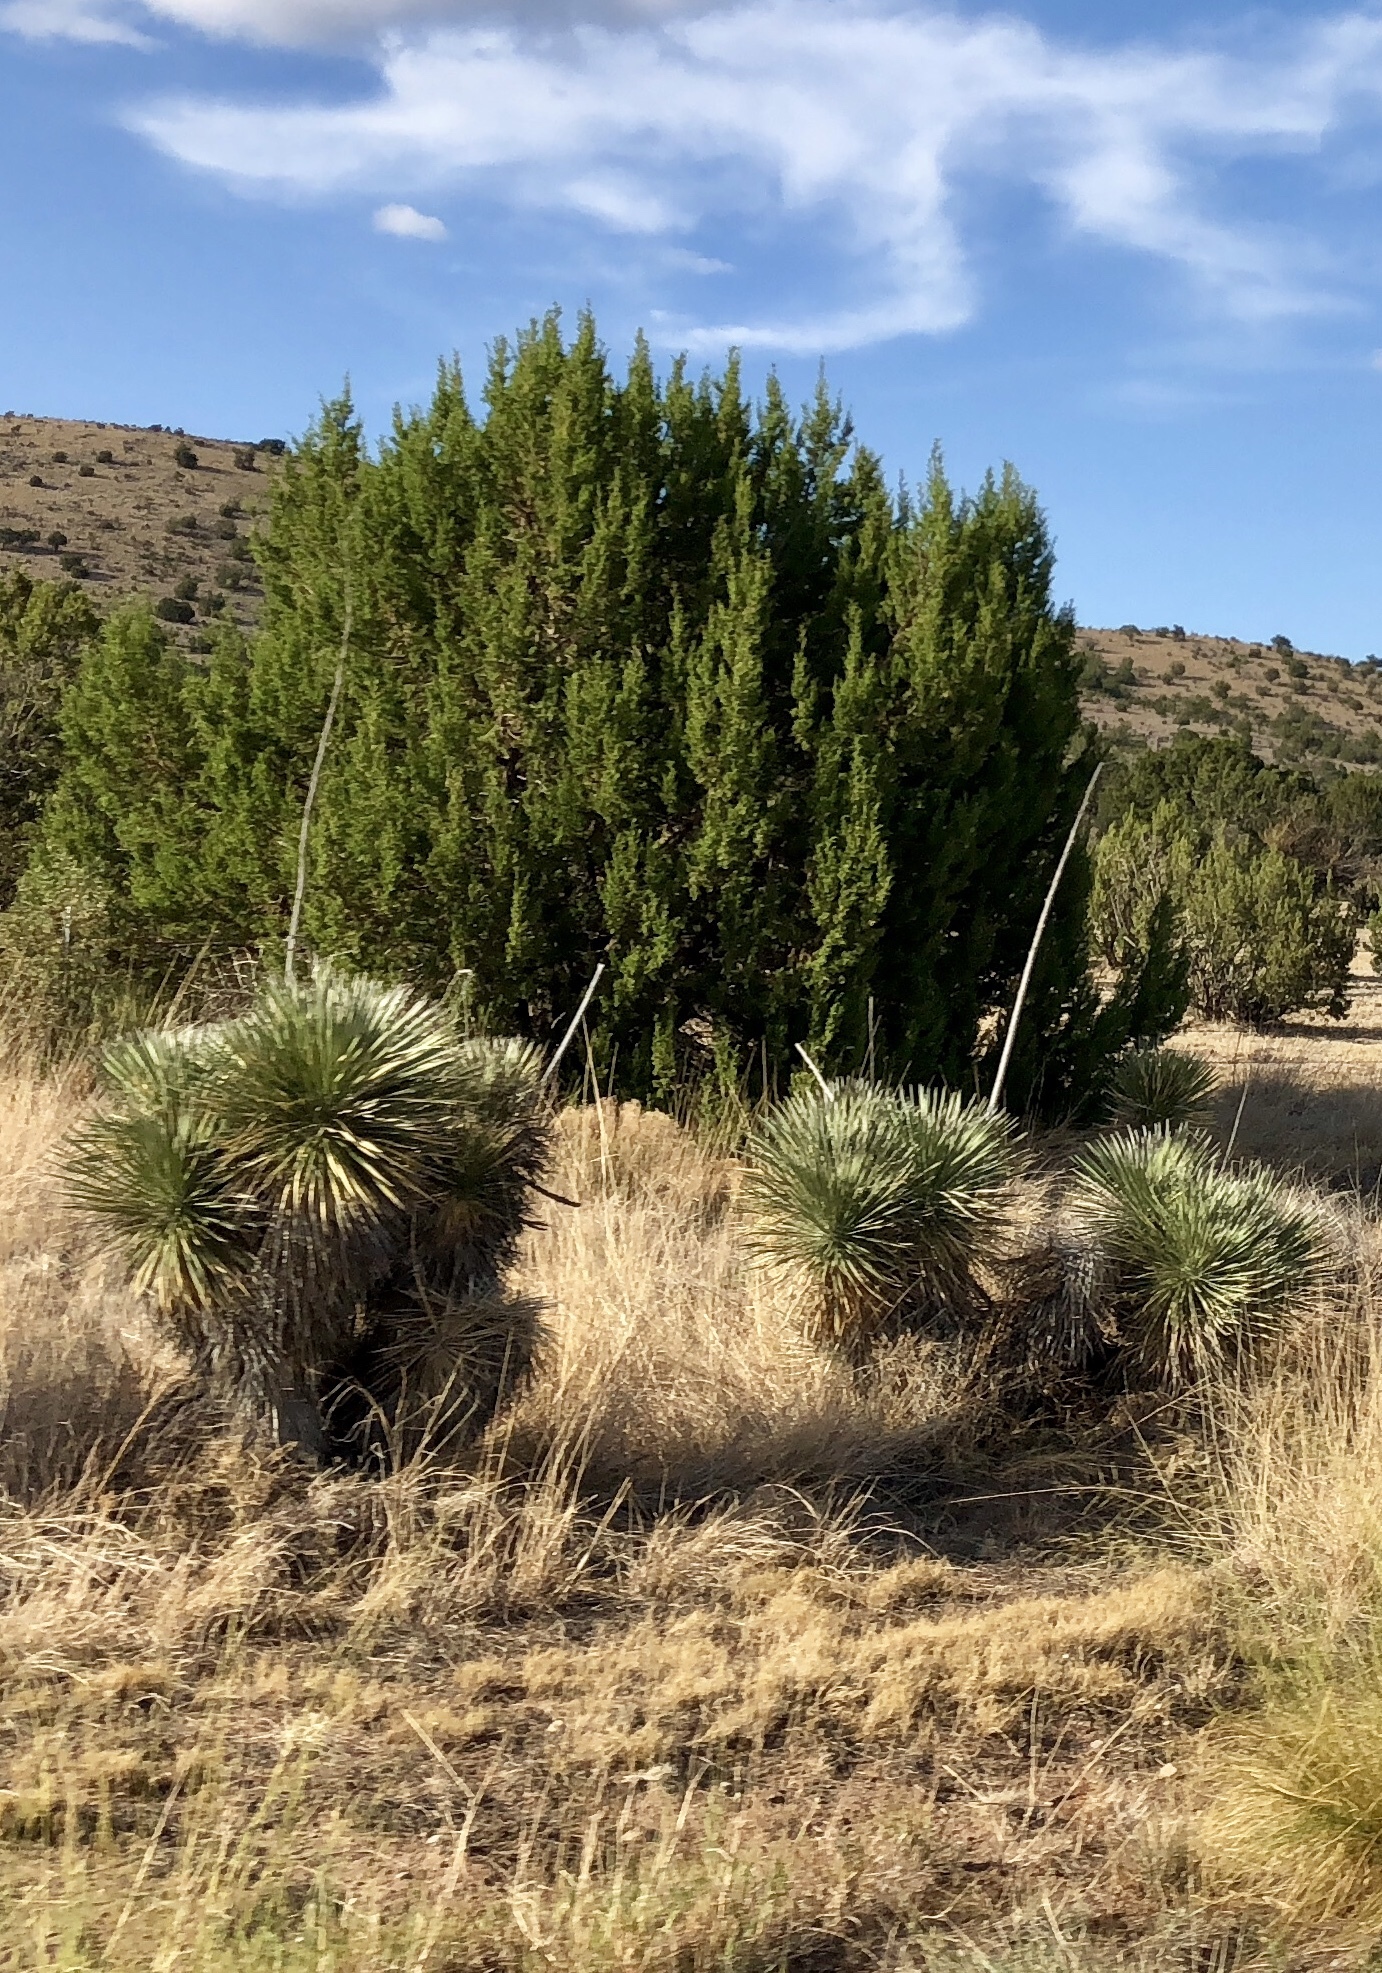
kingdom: Plantae
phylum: Tracheophyta
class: Liliopsida
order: Asparagales
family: Asparagaceae
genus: Yucca
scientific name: Yucca elata
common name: Palmella
